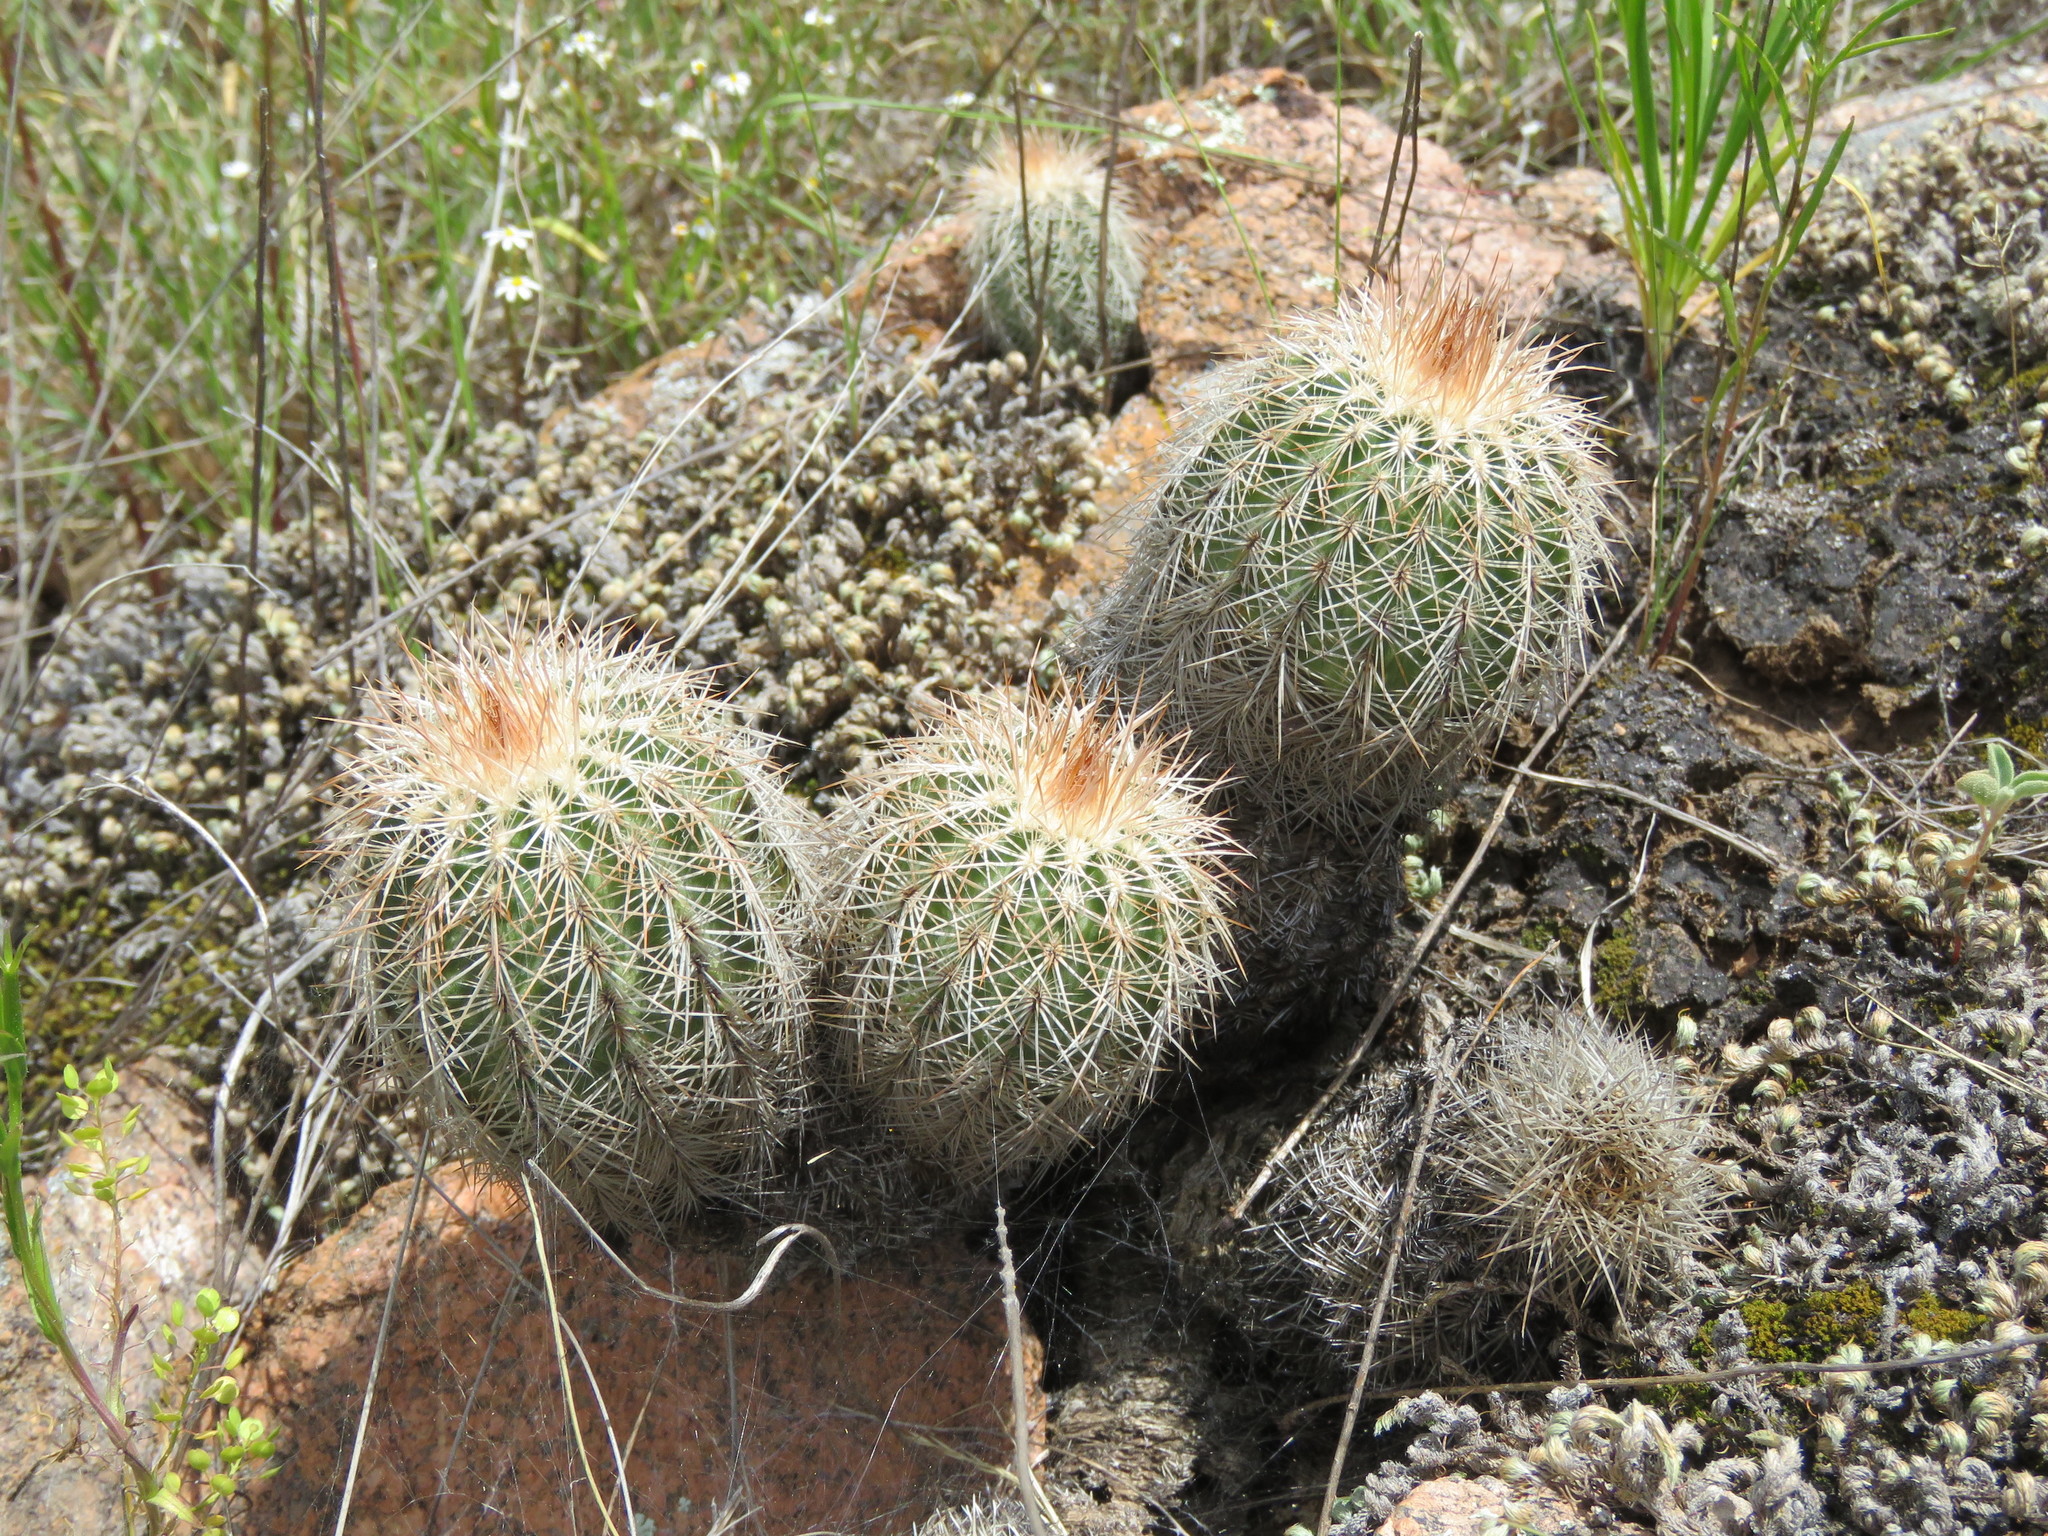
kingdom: Plantae
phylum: Tracheophyta
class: Magnoliopsida
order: Caryophyllales
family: Cactaceae
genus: Echinocereus
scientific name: Echinocereus reichenbachii
